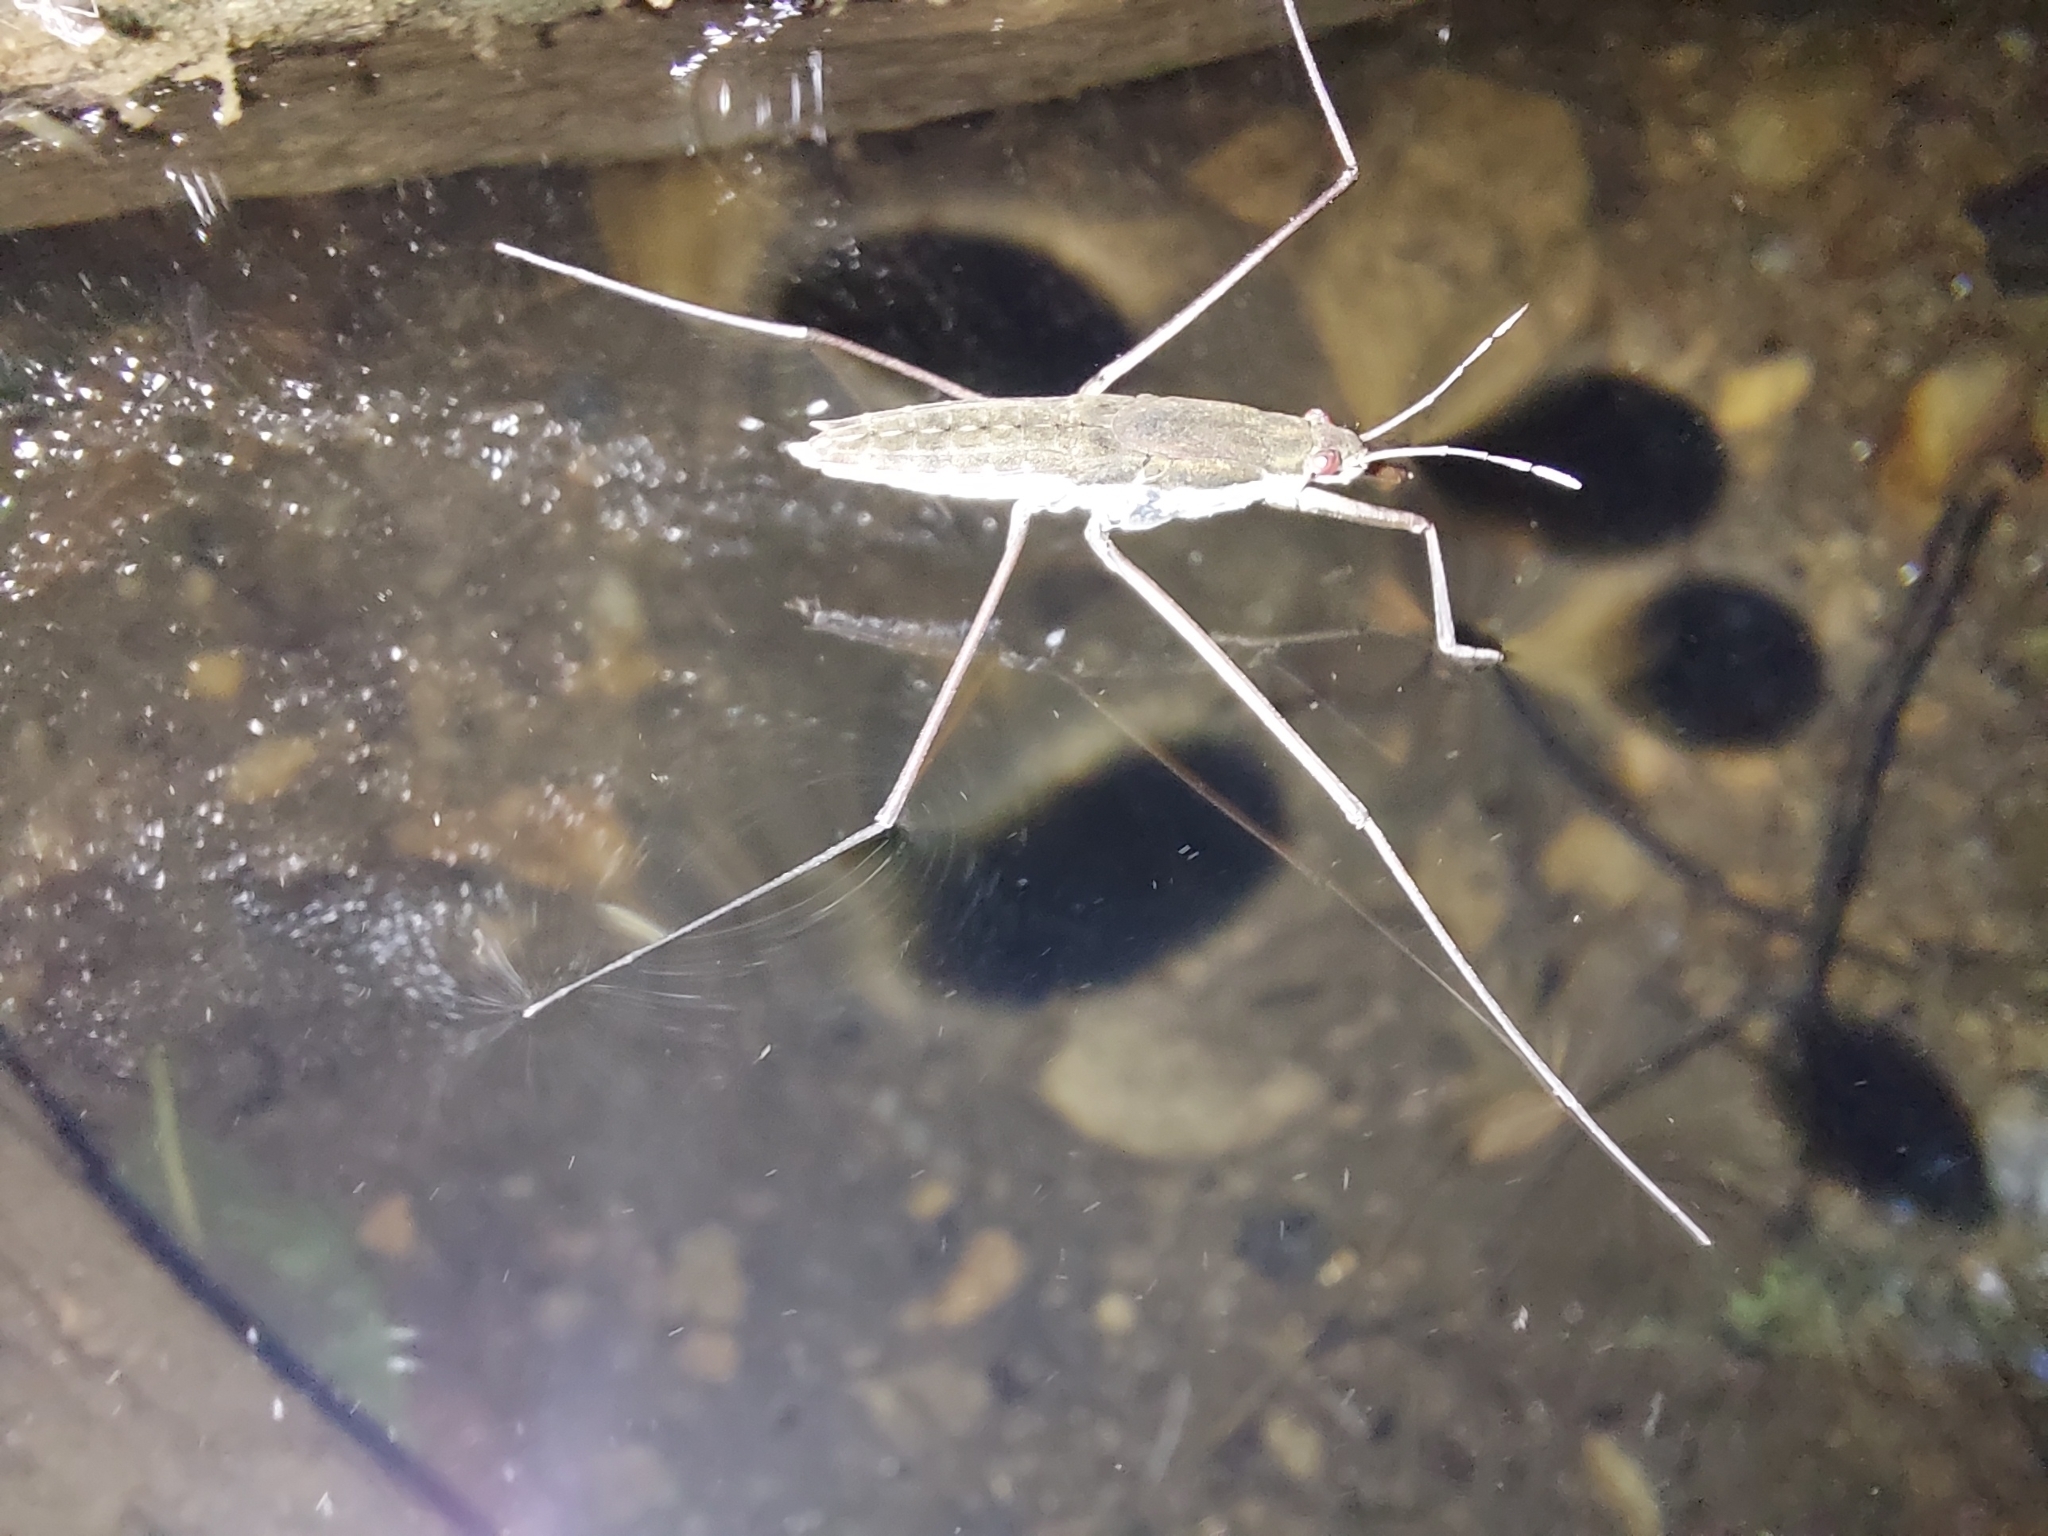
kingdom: Animalia
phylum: Arthropoda
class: Insecta
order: Hemiptera
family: Gerridae
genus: Aquarius
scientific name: Aquarius
